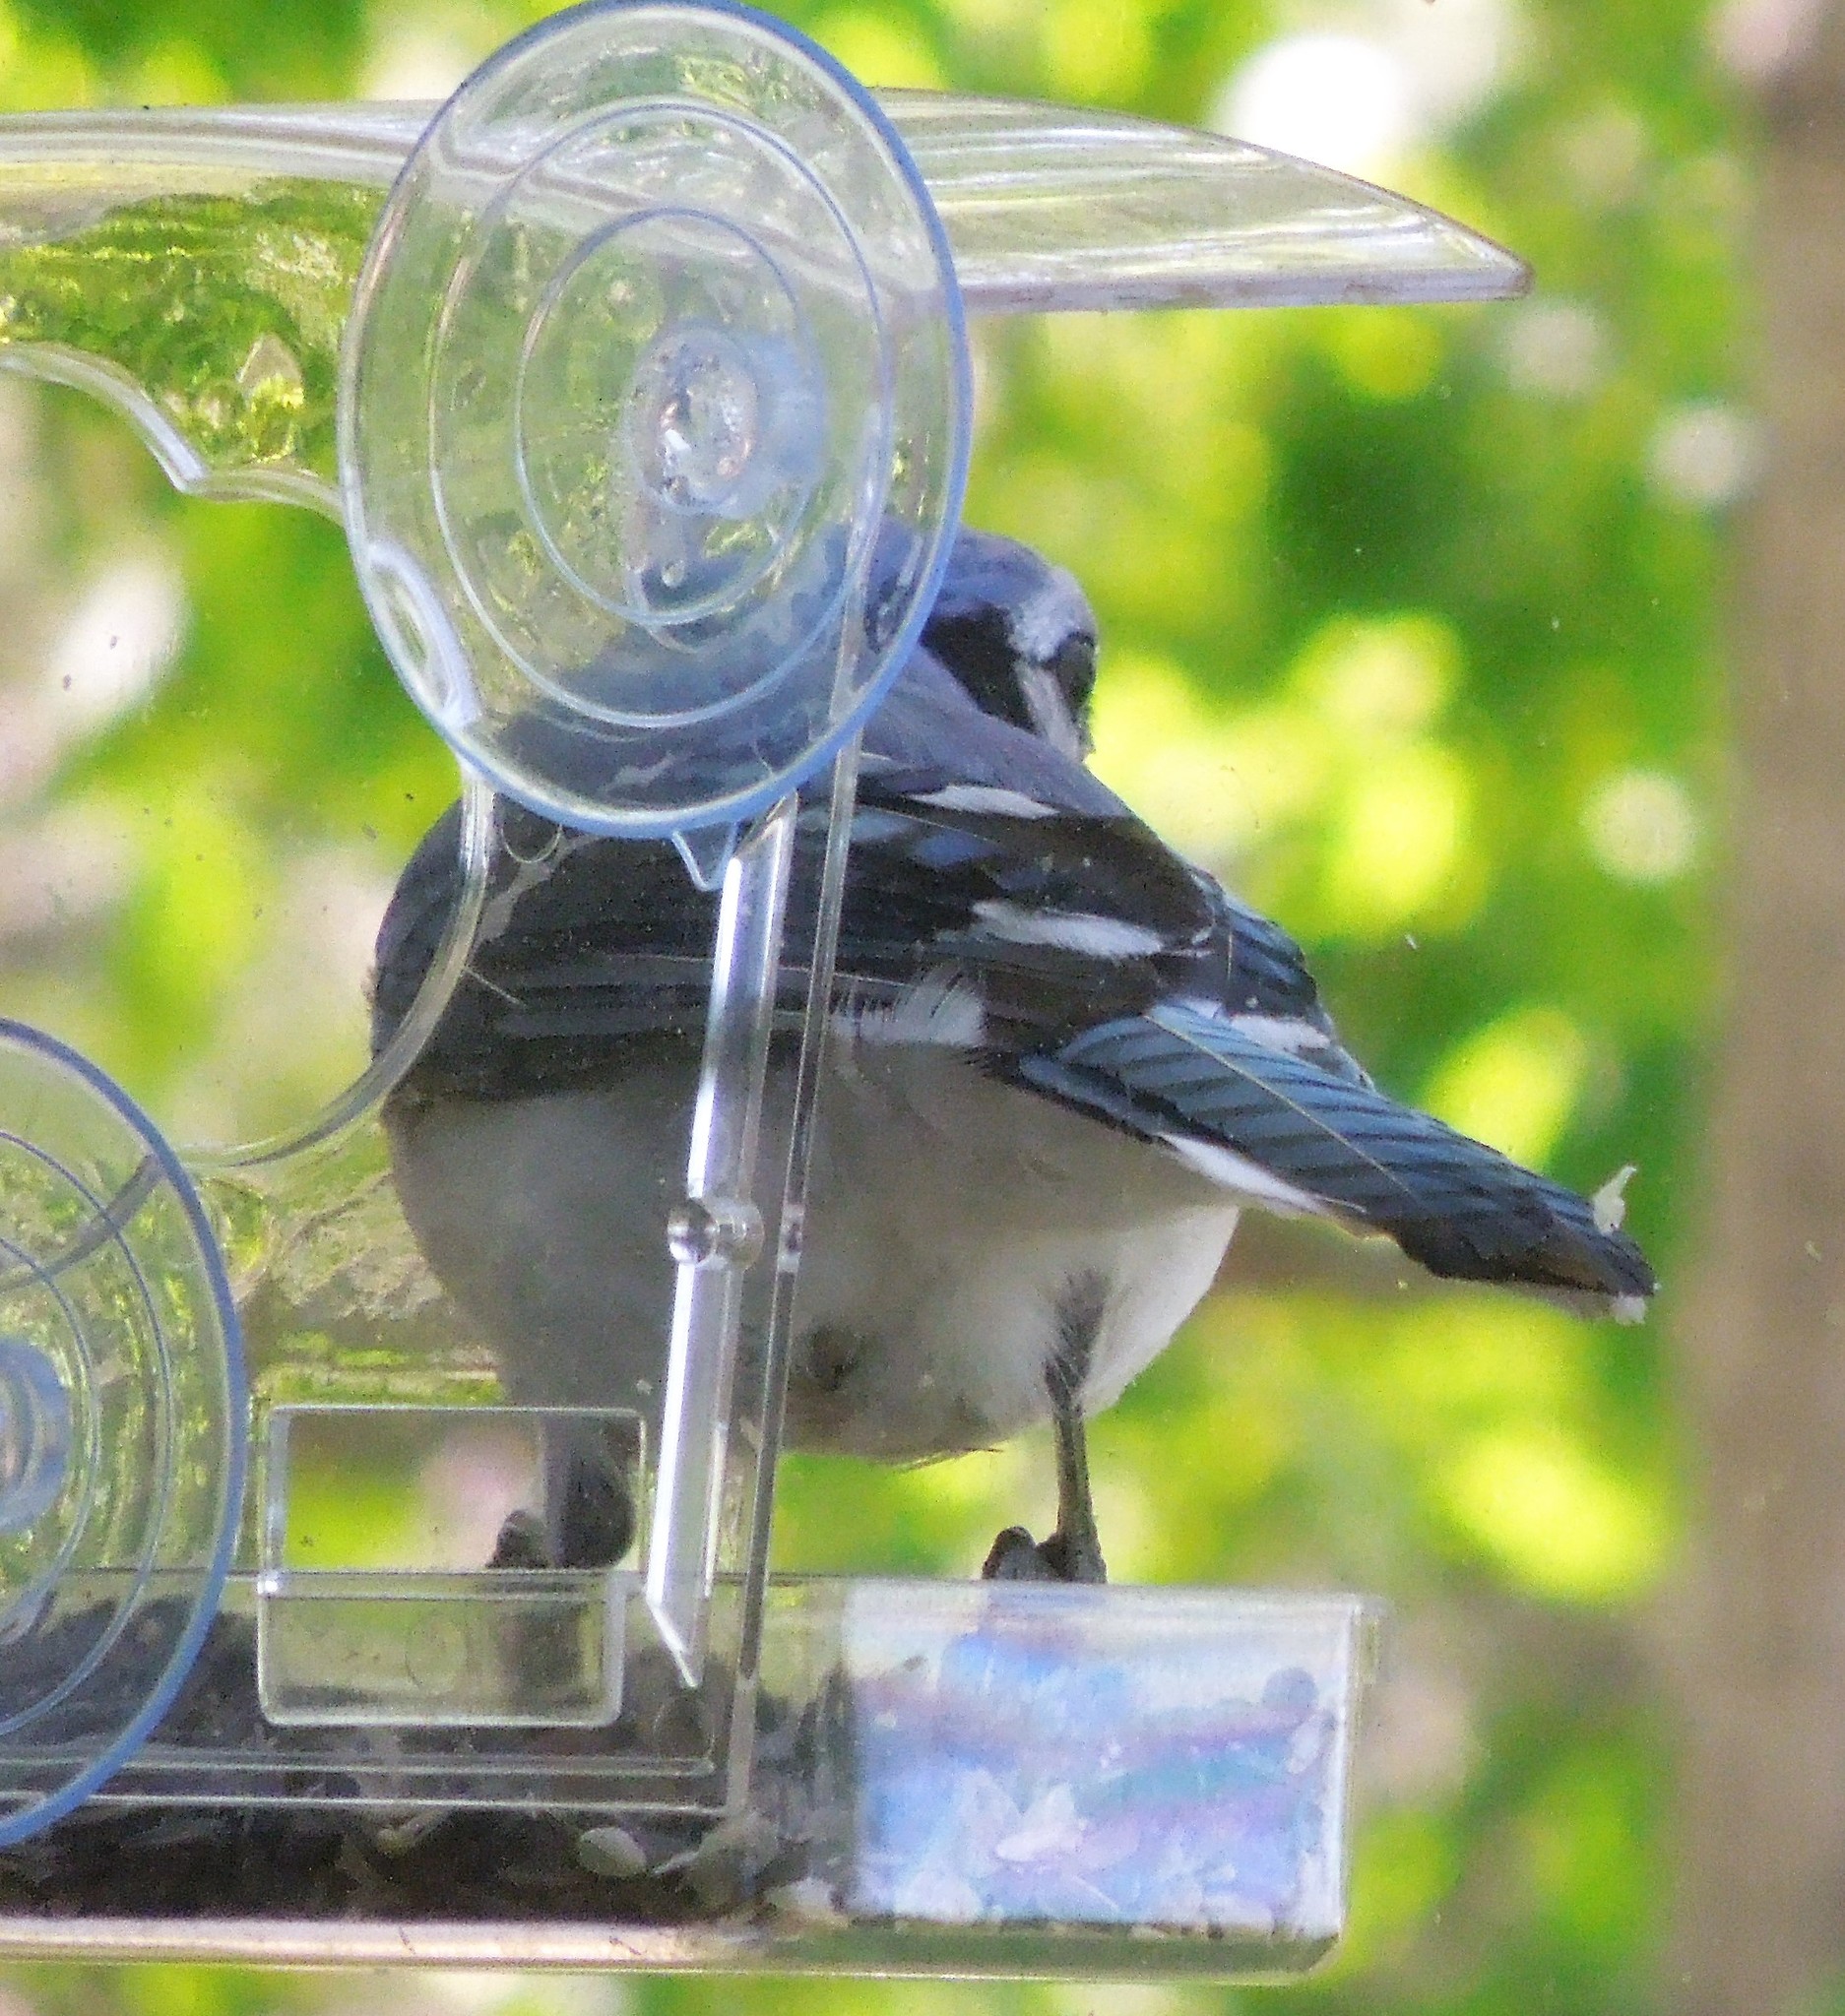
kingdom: Animalia
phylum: Chordata
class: Aves
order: Passeriformes
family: Corvidae
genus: Cyanocitta
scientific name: Cyanocitta cristata
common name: Blue jay
